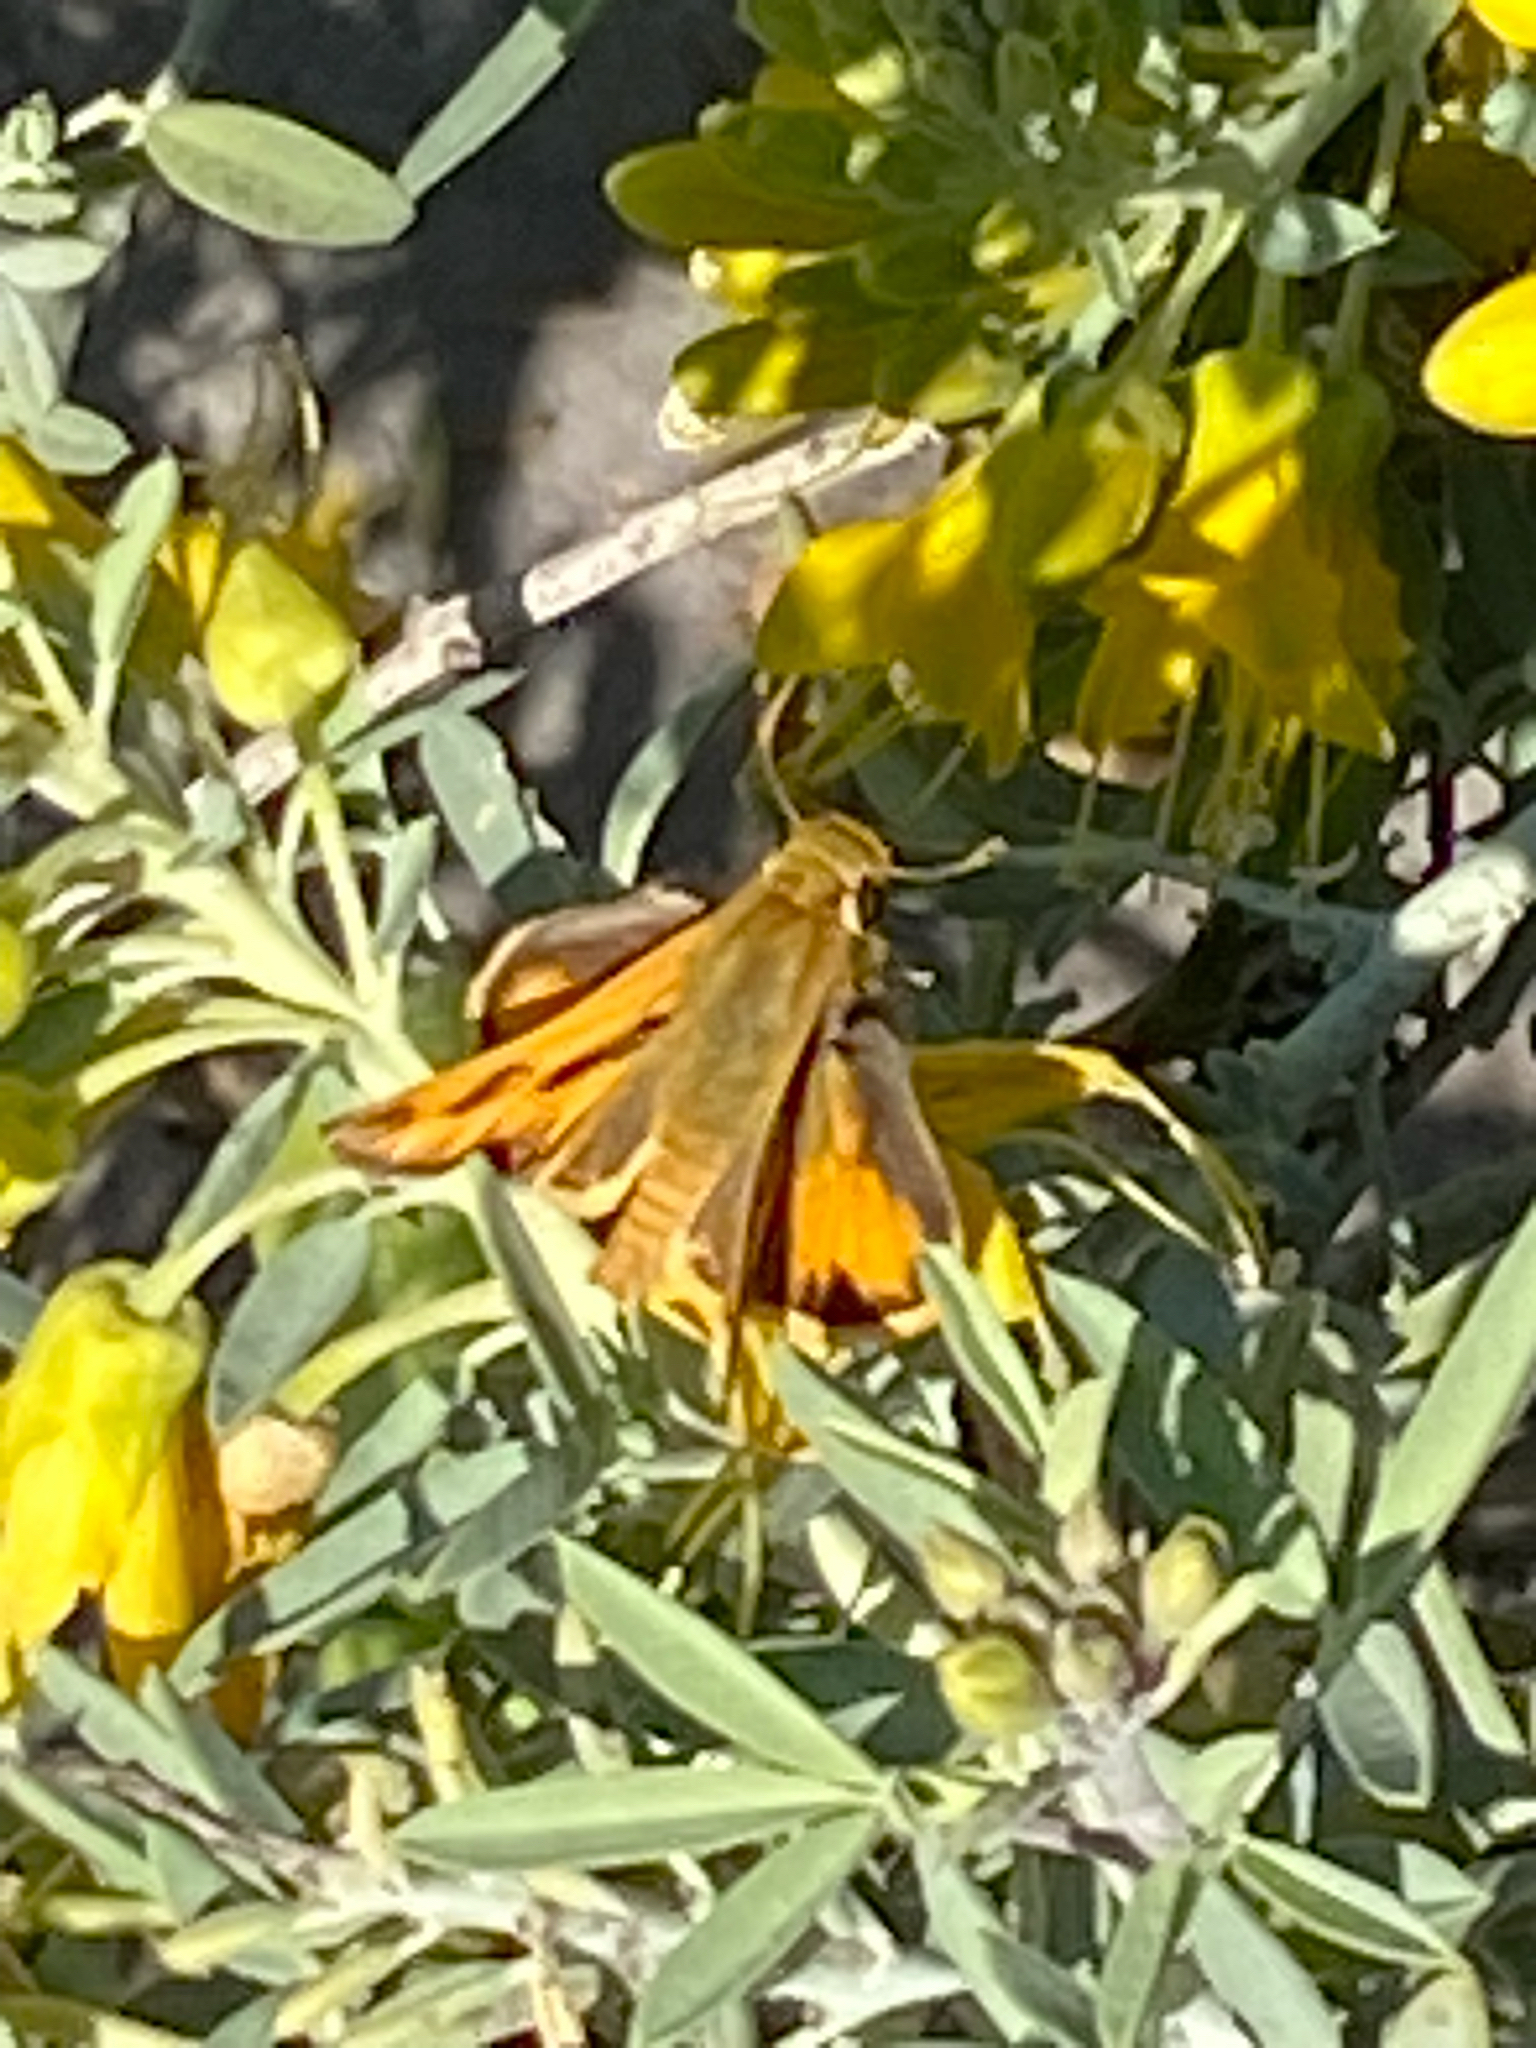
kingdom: Animalia
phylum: Arthropoda
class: Insecta
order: Lepidoptera
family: Hesperiidae
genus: Hylephila
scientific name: Hylephila phyleus
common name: Fiery skipper
